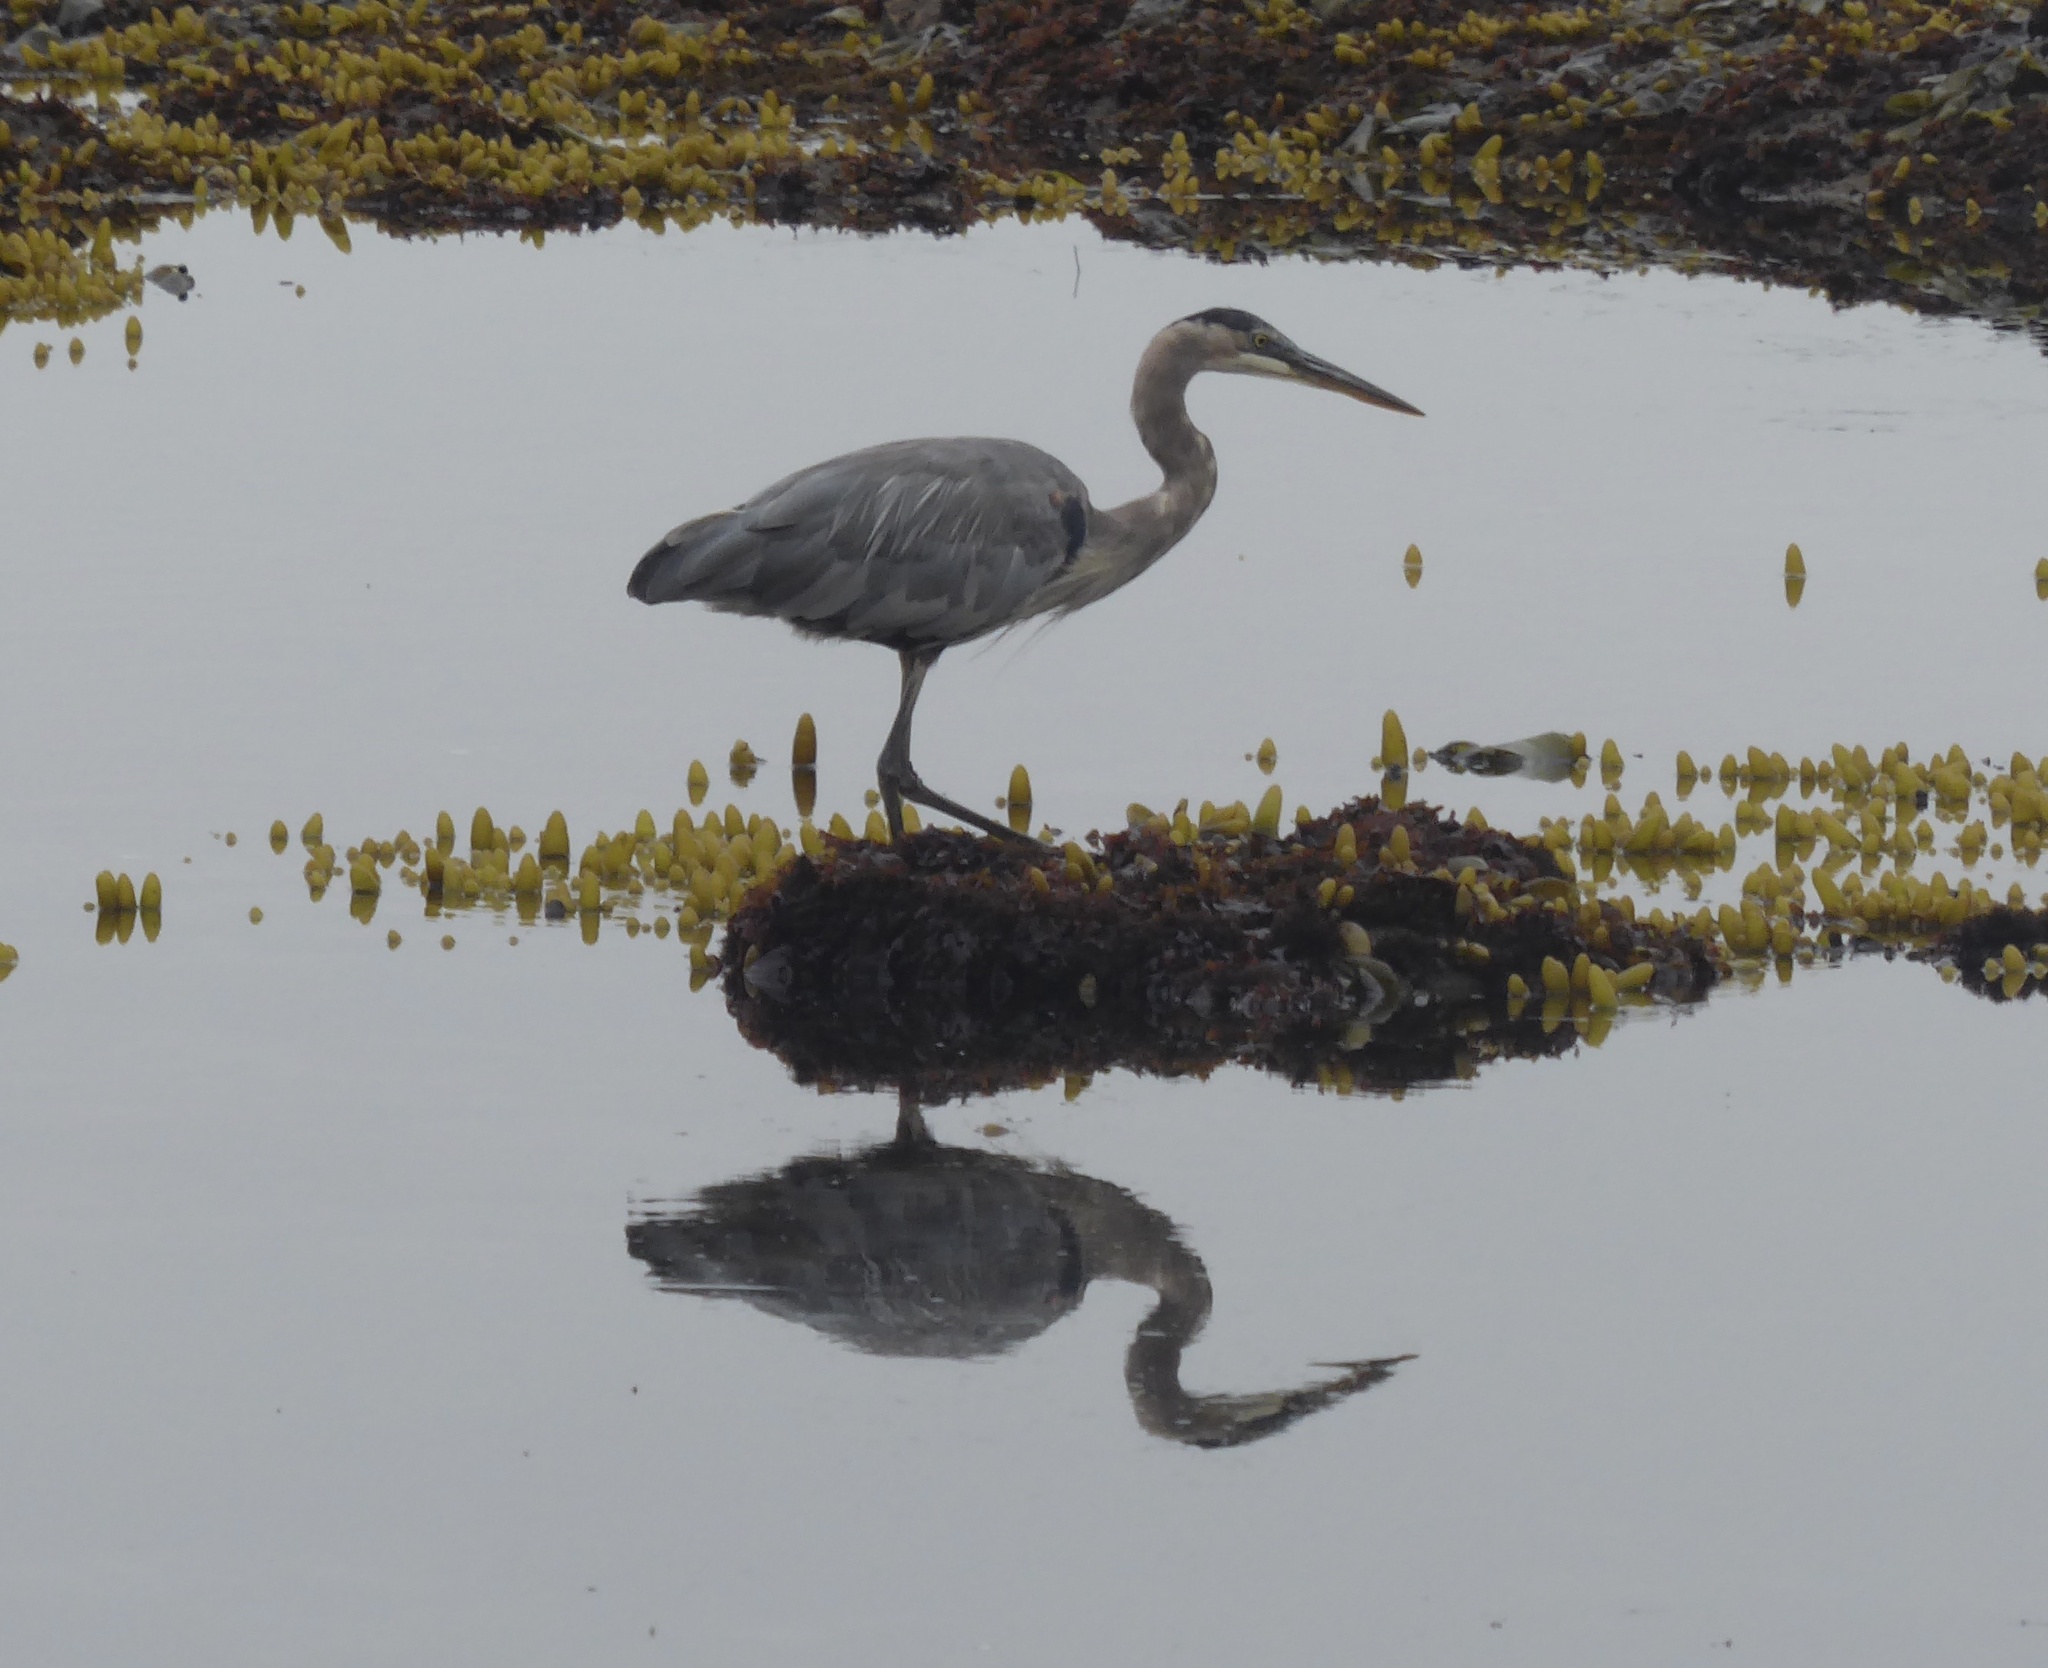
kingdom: Animalia
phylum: Chordata
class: Aves
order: Pelecaniformes
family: Ardeidae
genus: Ardea
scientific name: Ardea herodias
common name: Great blue heron
